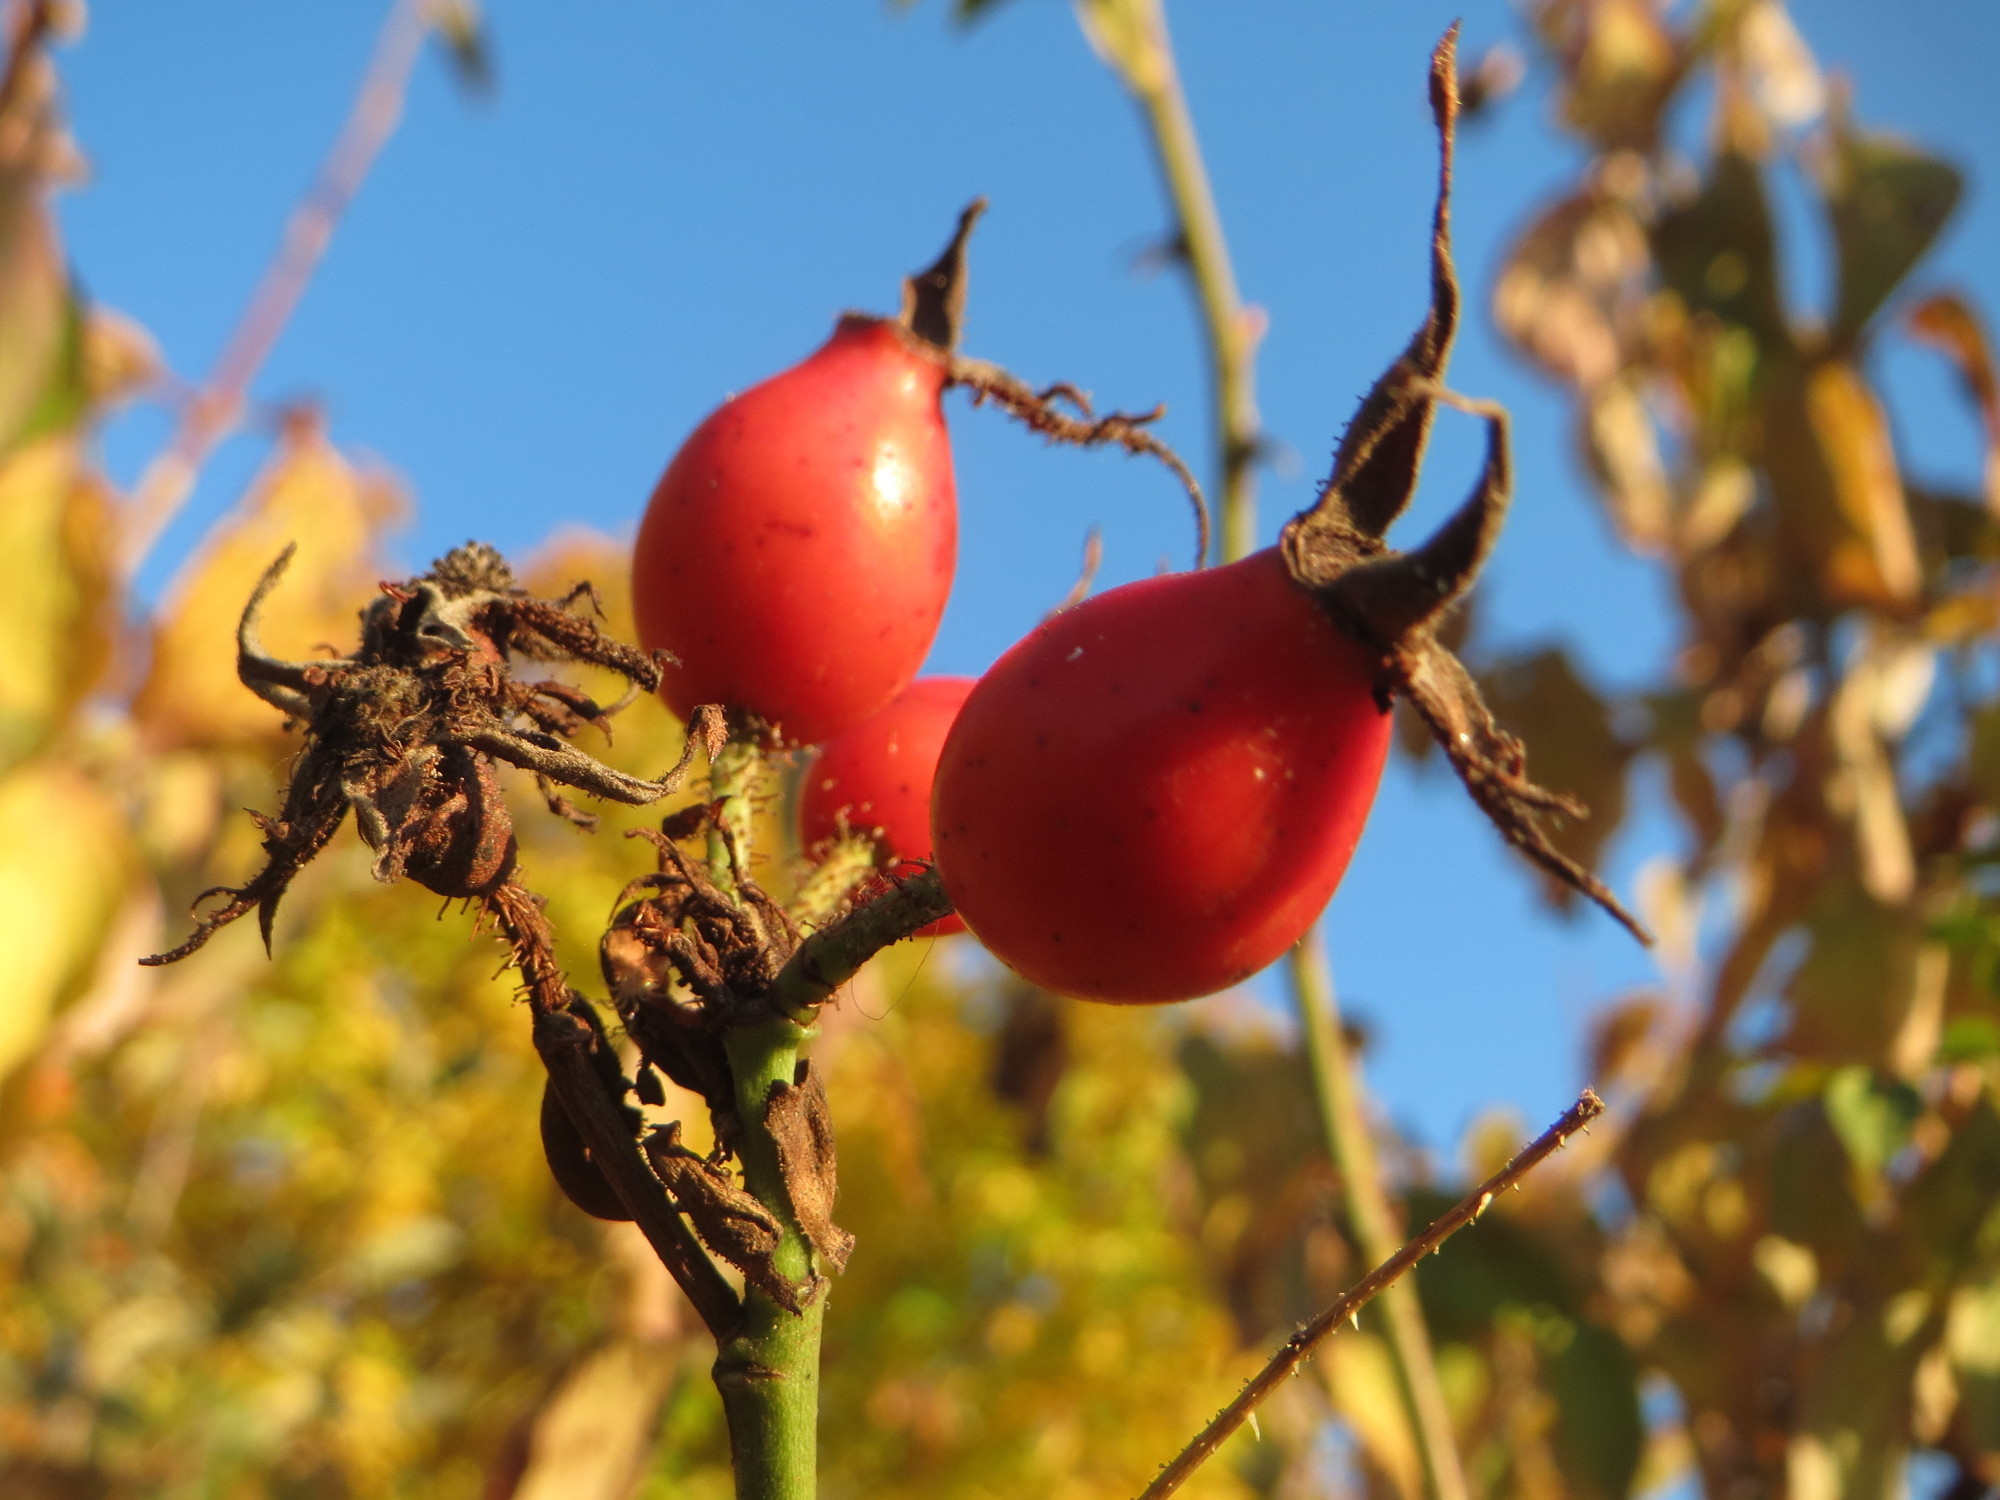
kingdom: Plantae
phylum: Tracheophyta
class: Magnoliopsida
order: Rosales
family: Rosaceae
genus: Rosa
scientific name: Rosa rubiginosa
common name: Sweet-briar
